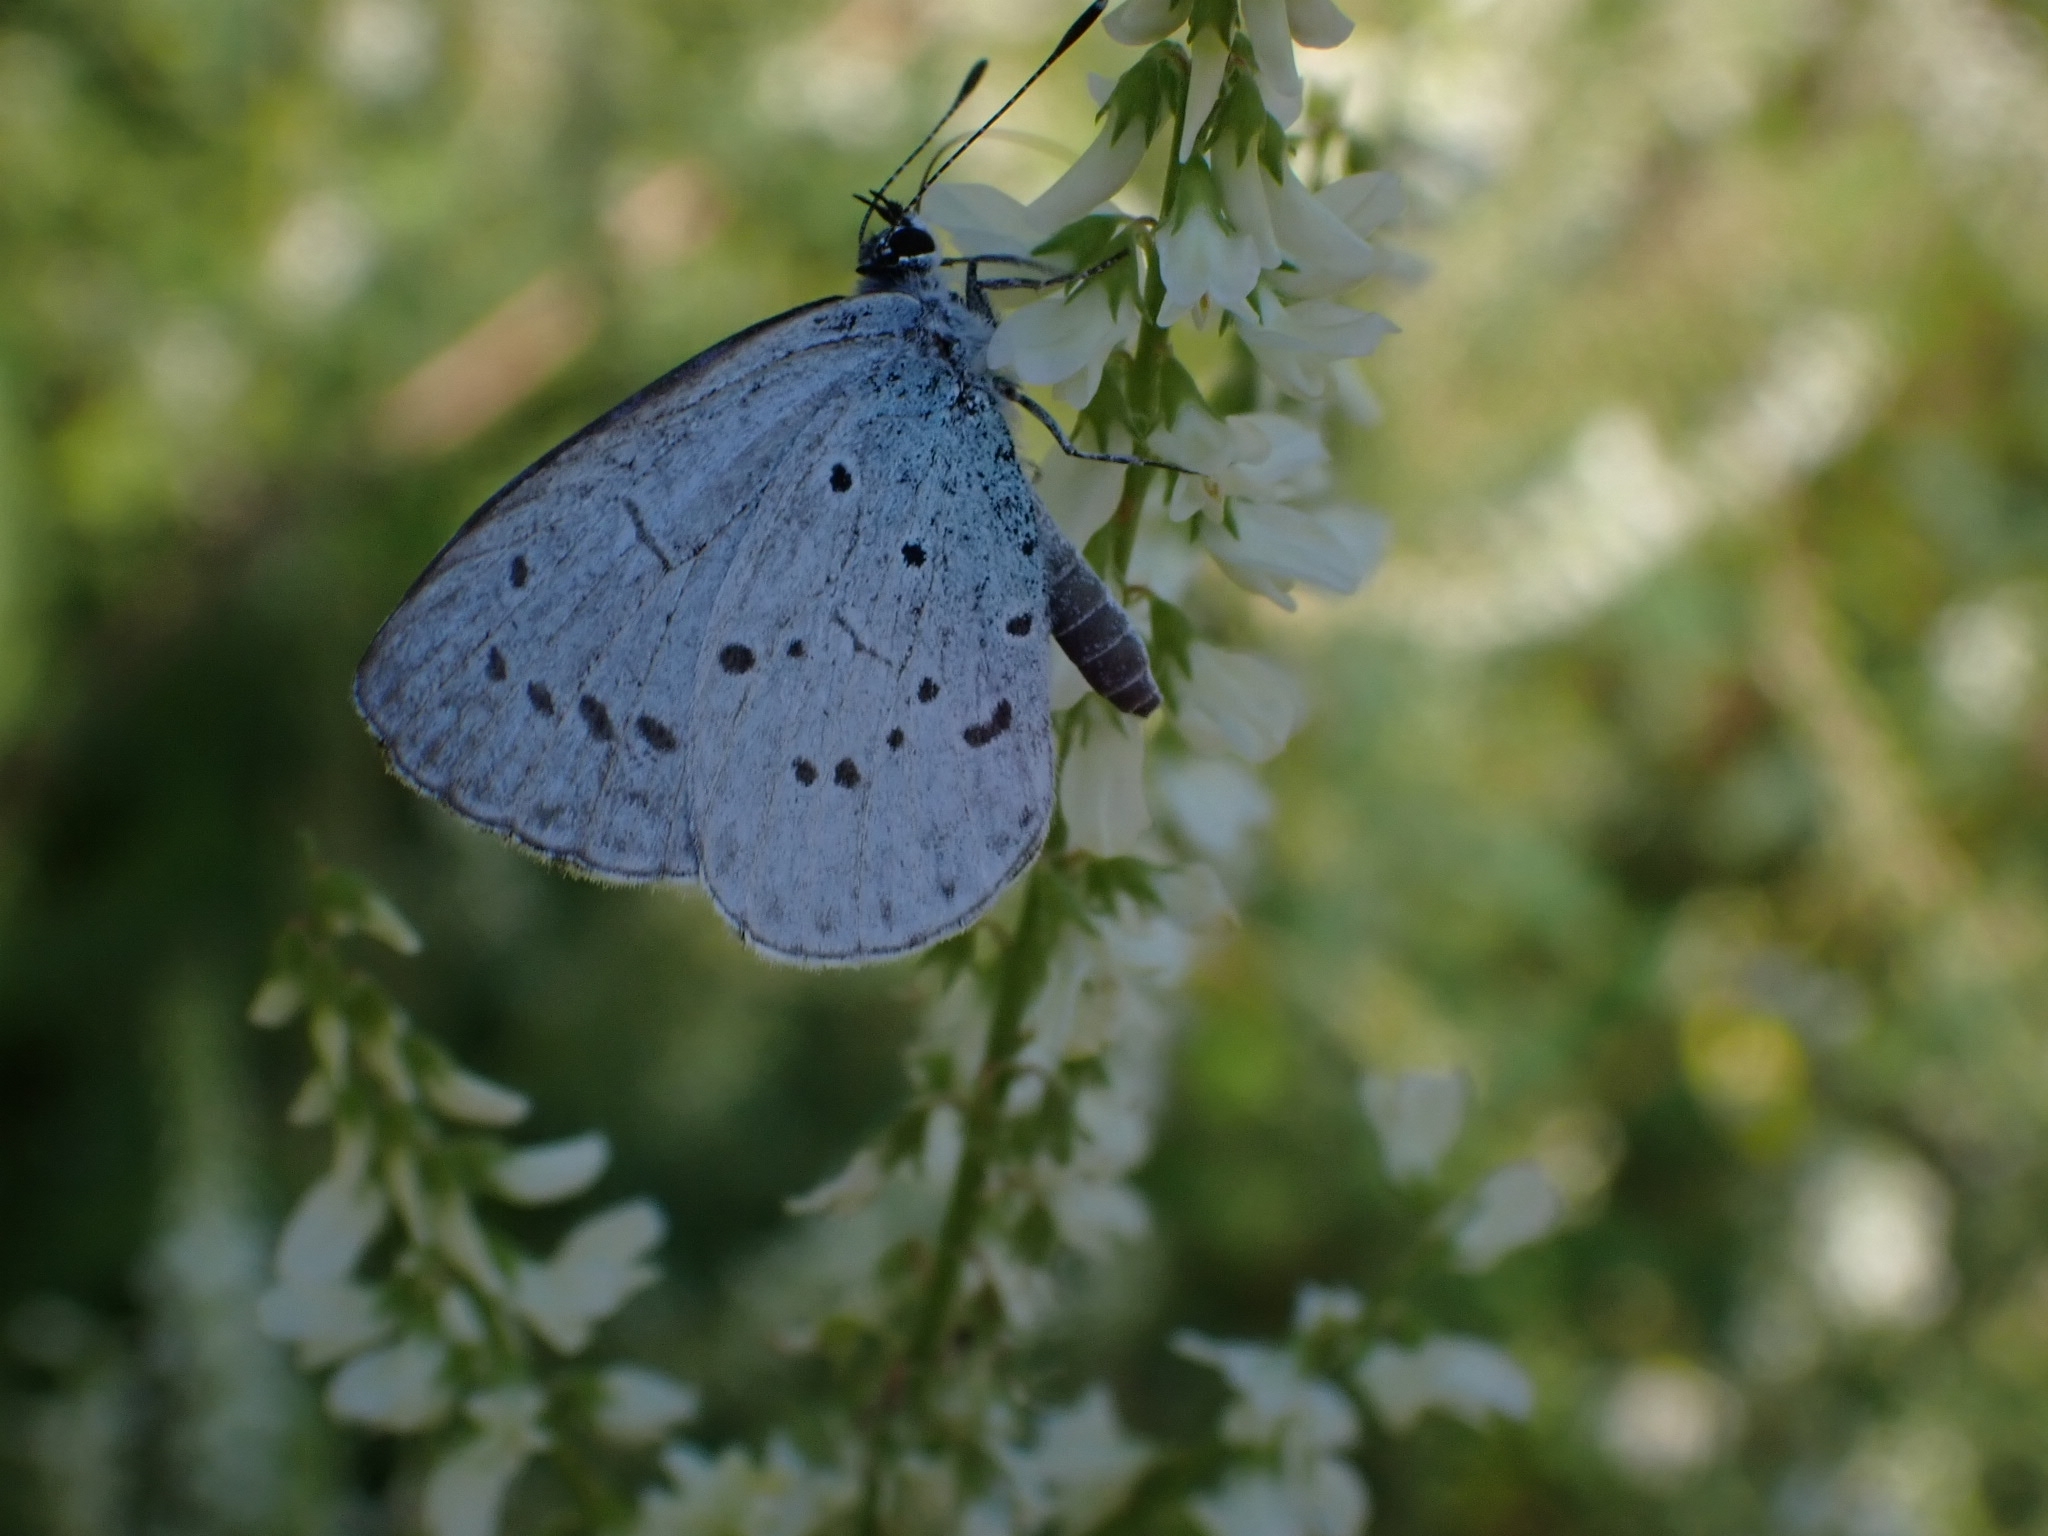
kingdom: Animalia
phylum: Arthropoda
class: Insecta
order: Lepidoptera
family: Lycaenidae
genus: Celastrina
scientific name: Celastrina argiolus
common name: Holly blue
